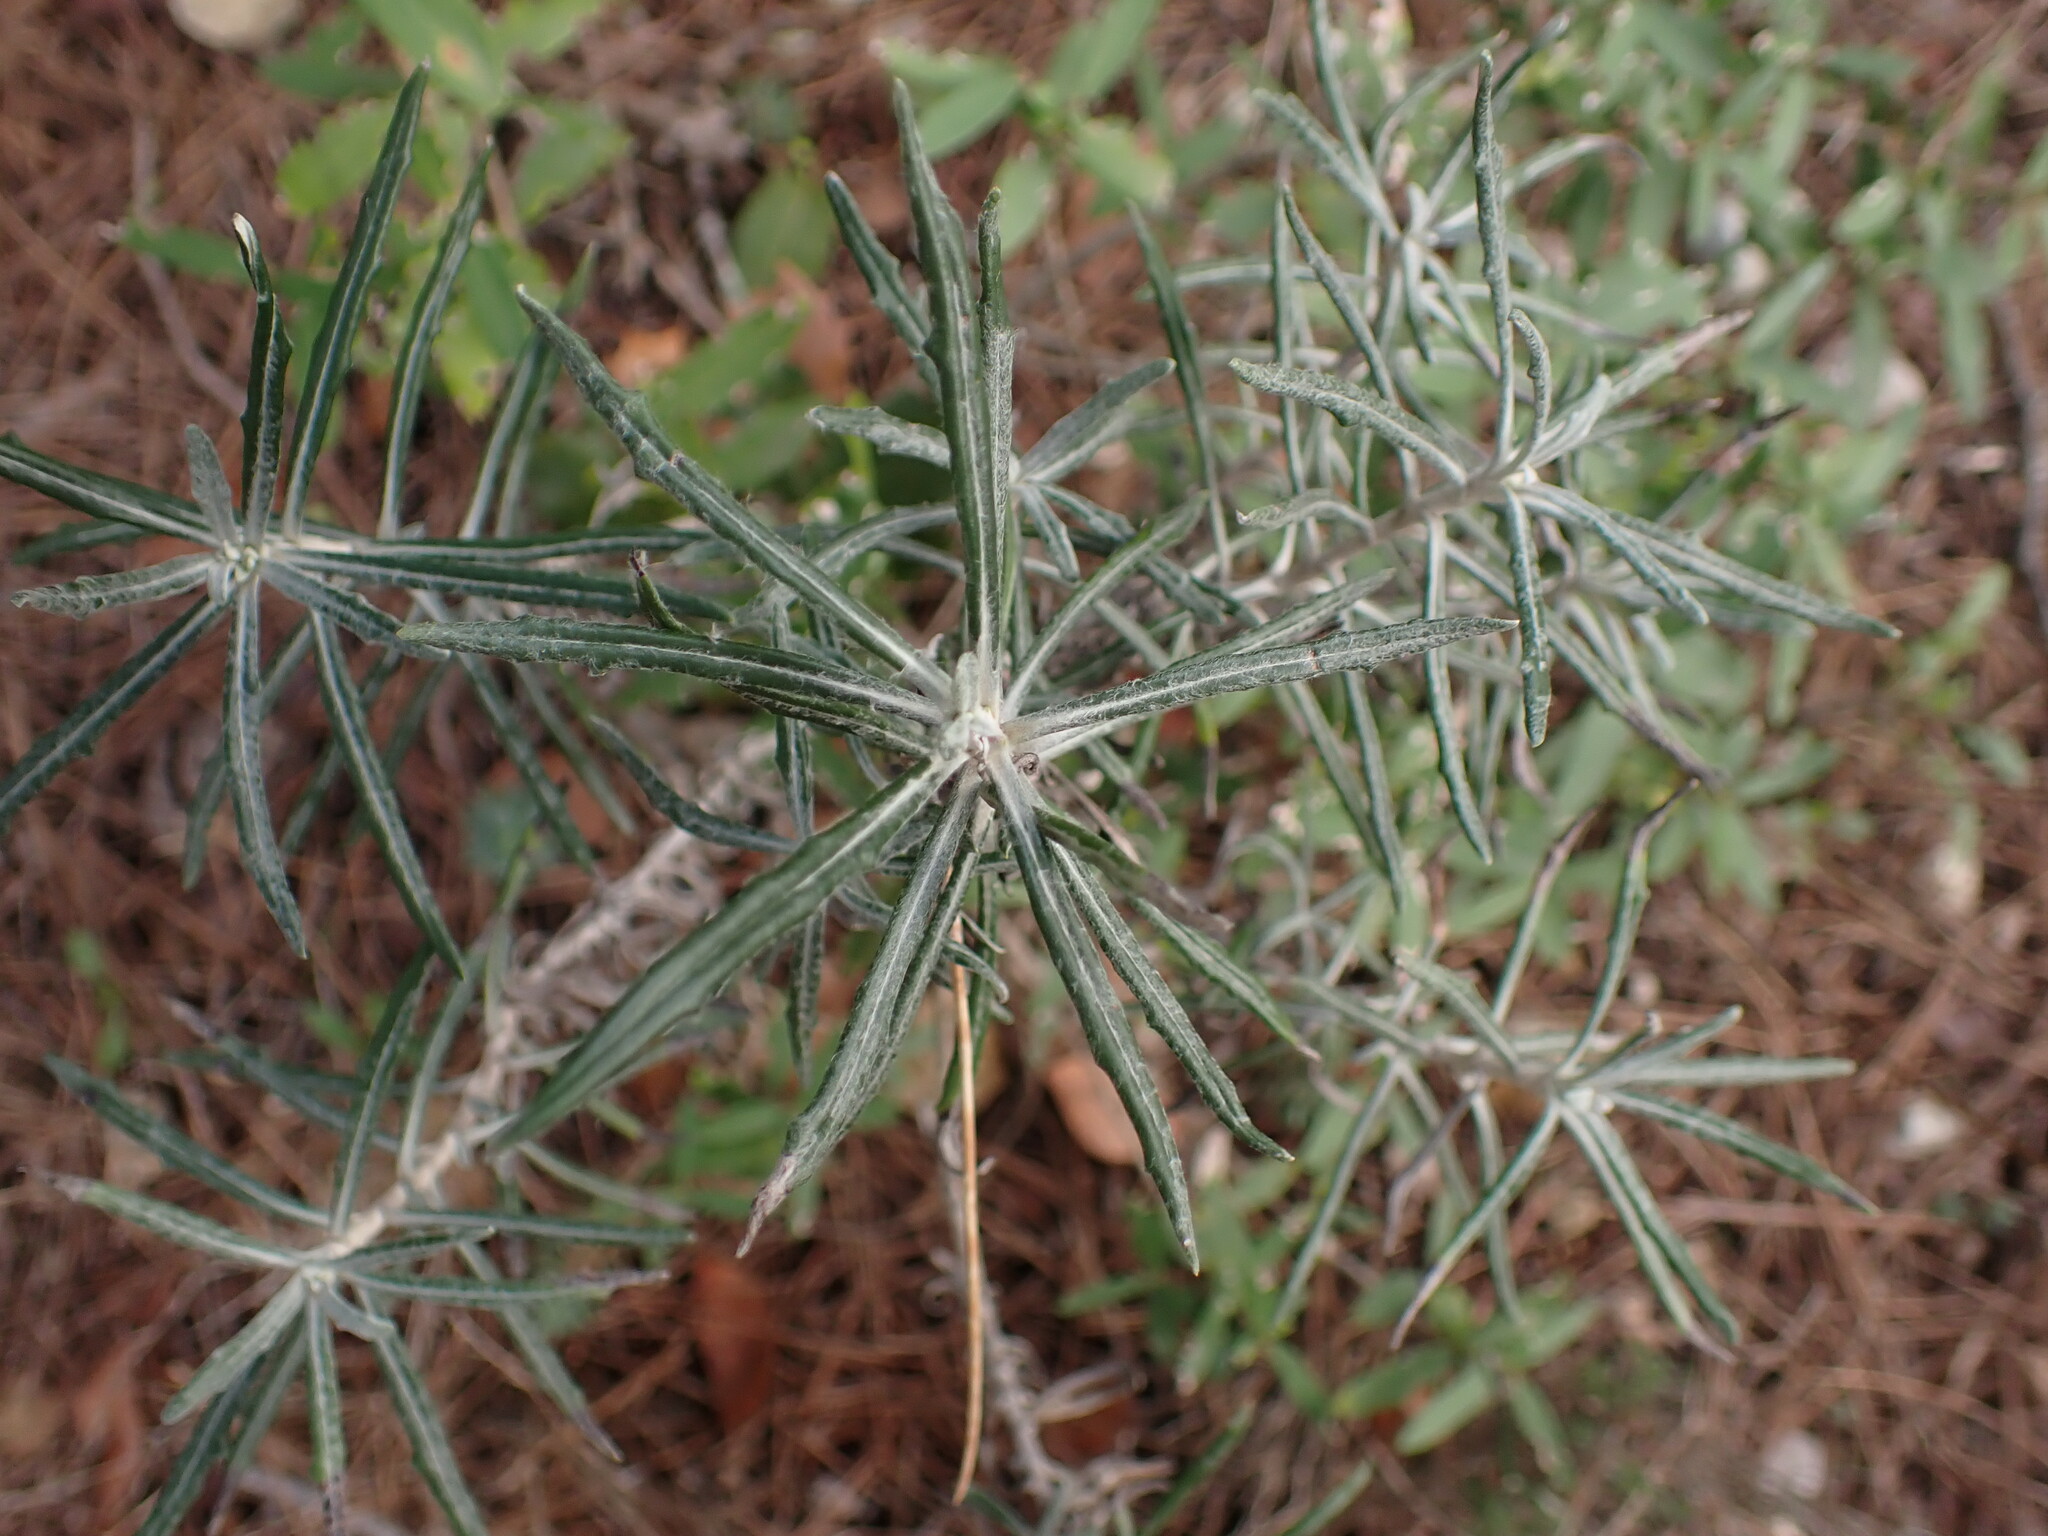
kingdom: Plantae
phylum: Tracheophyta
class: Magnoliopsida
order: Asterales
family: Asteraceae
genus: Staehelina
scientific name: Staehelina dubia
